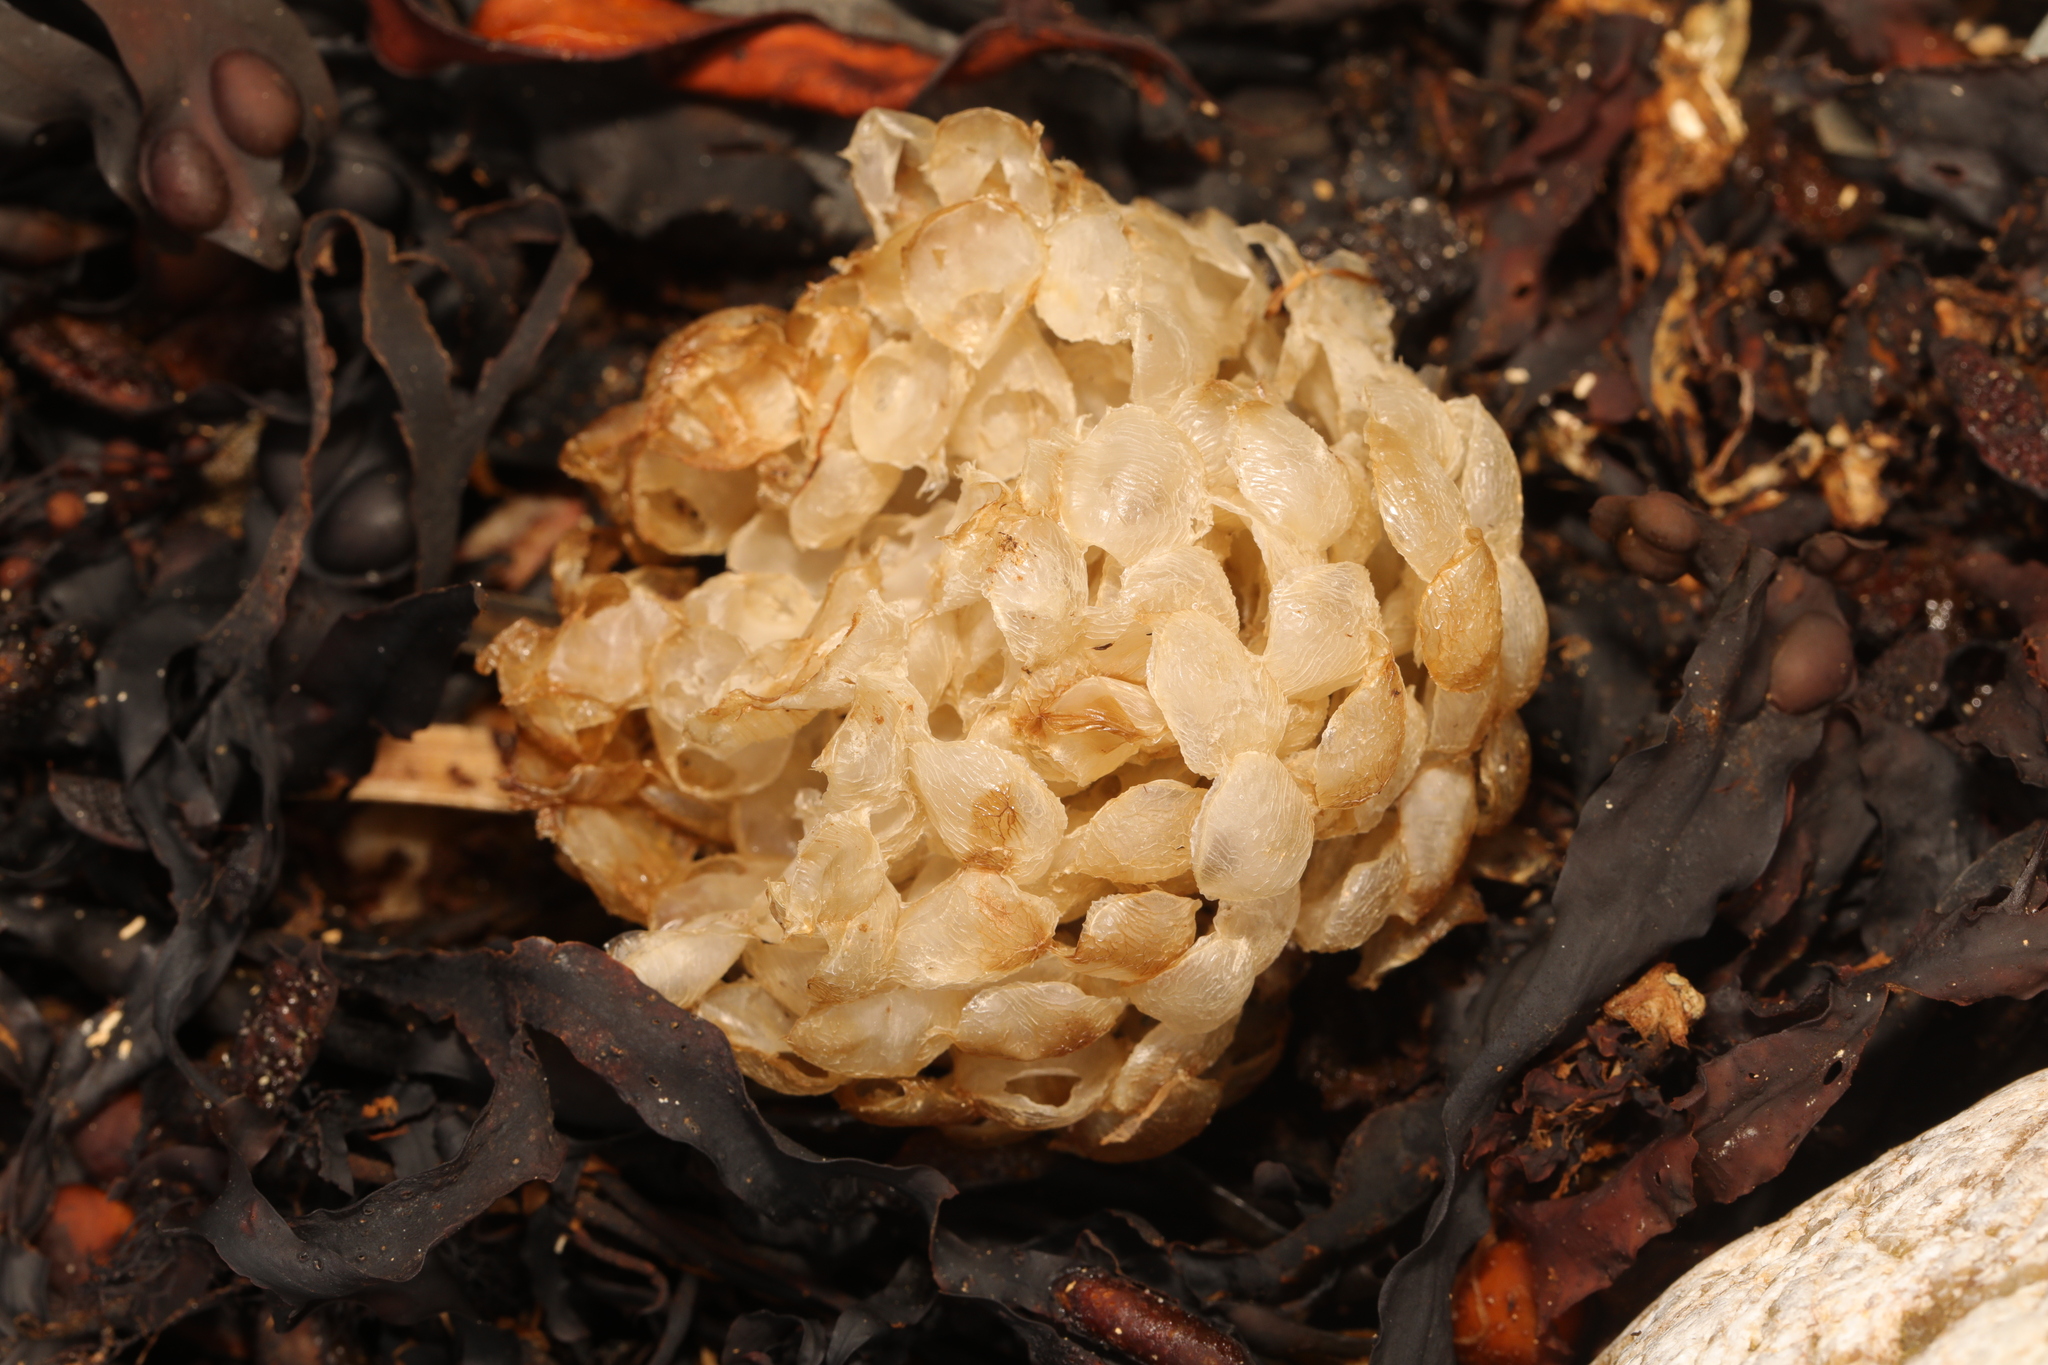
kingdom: Animalia
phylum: Mollusca
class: Gastropoda
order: Neogastropoda
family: Buccinidae
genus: Buccinum
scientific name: Buccinum undatum
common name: Common whelk
